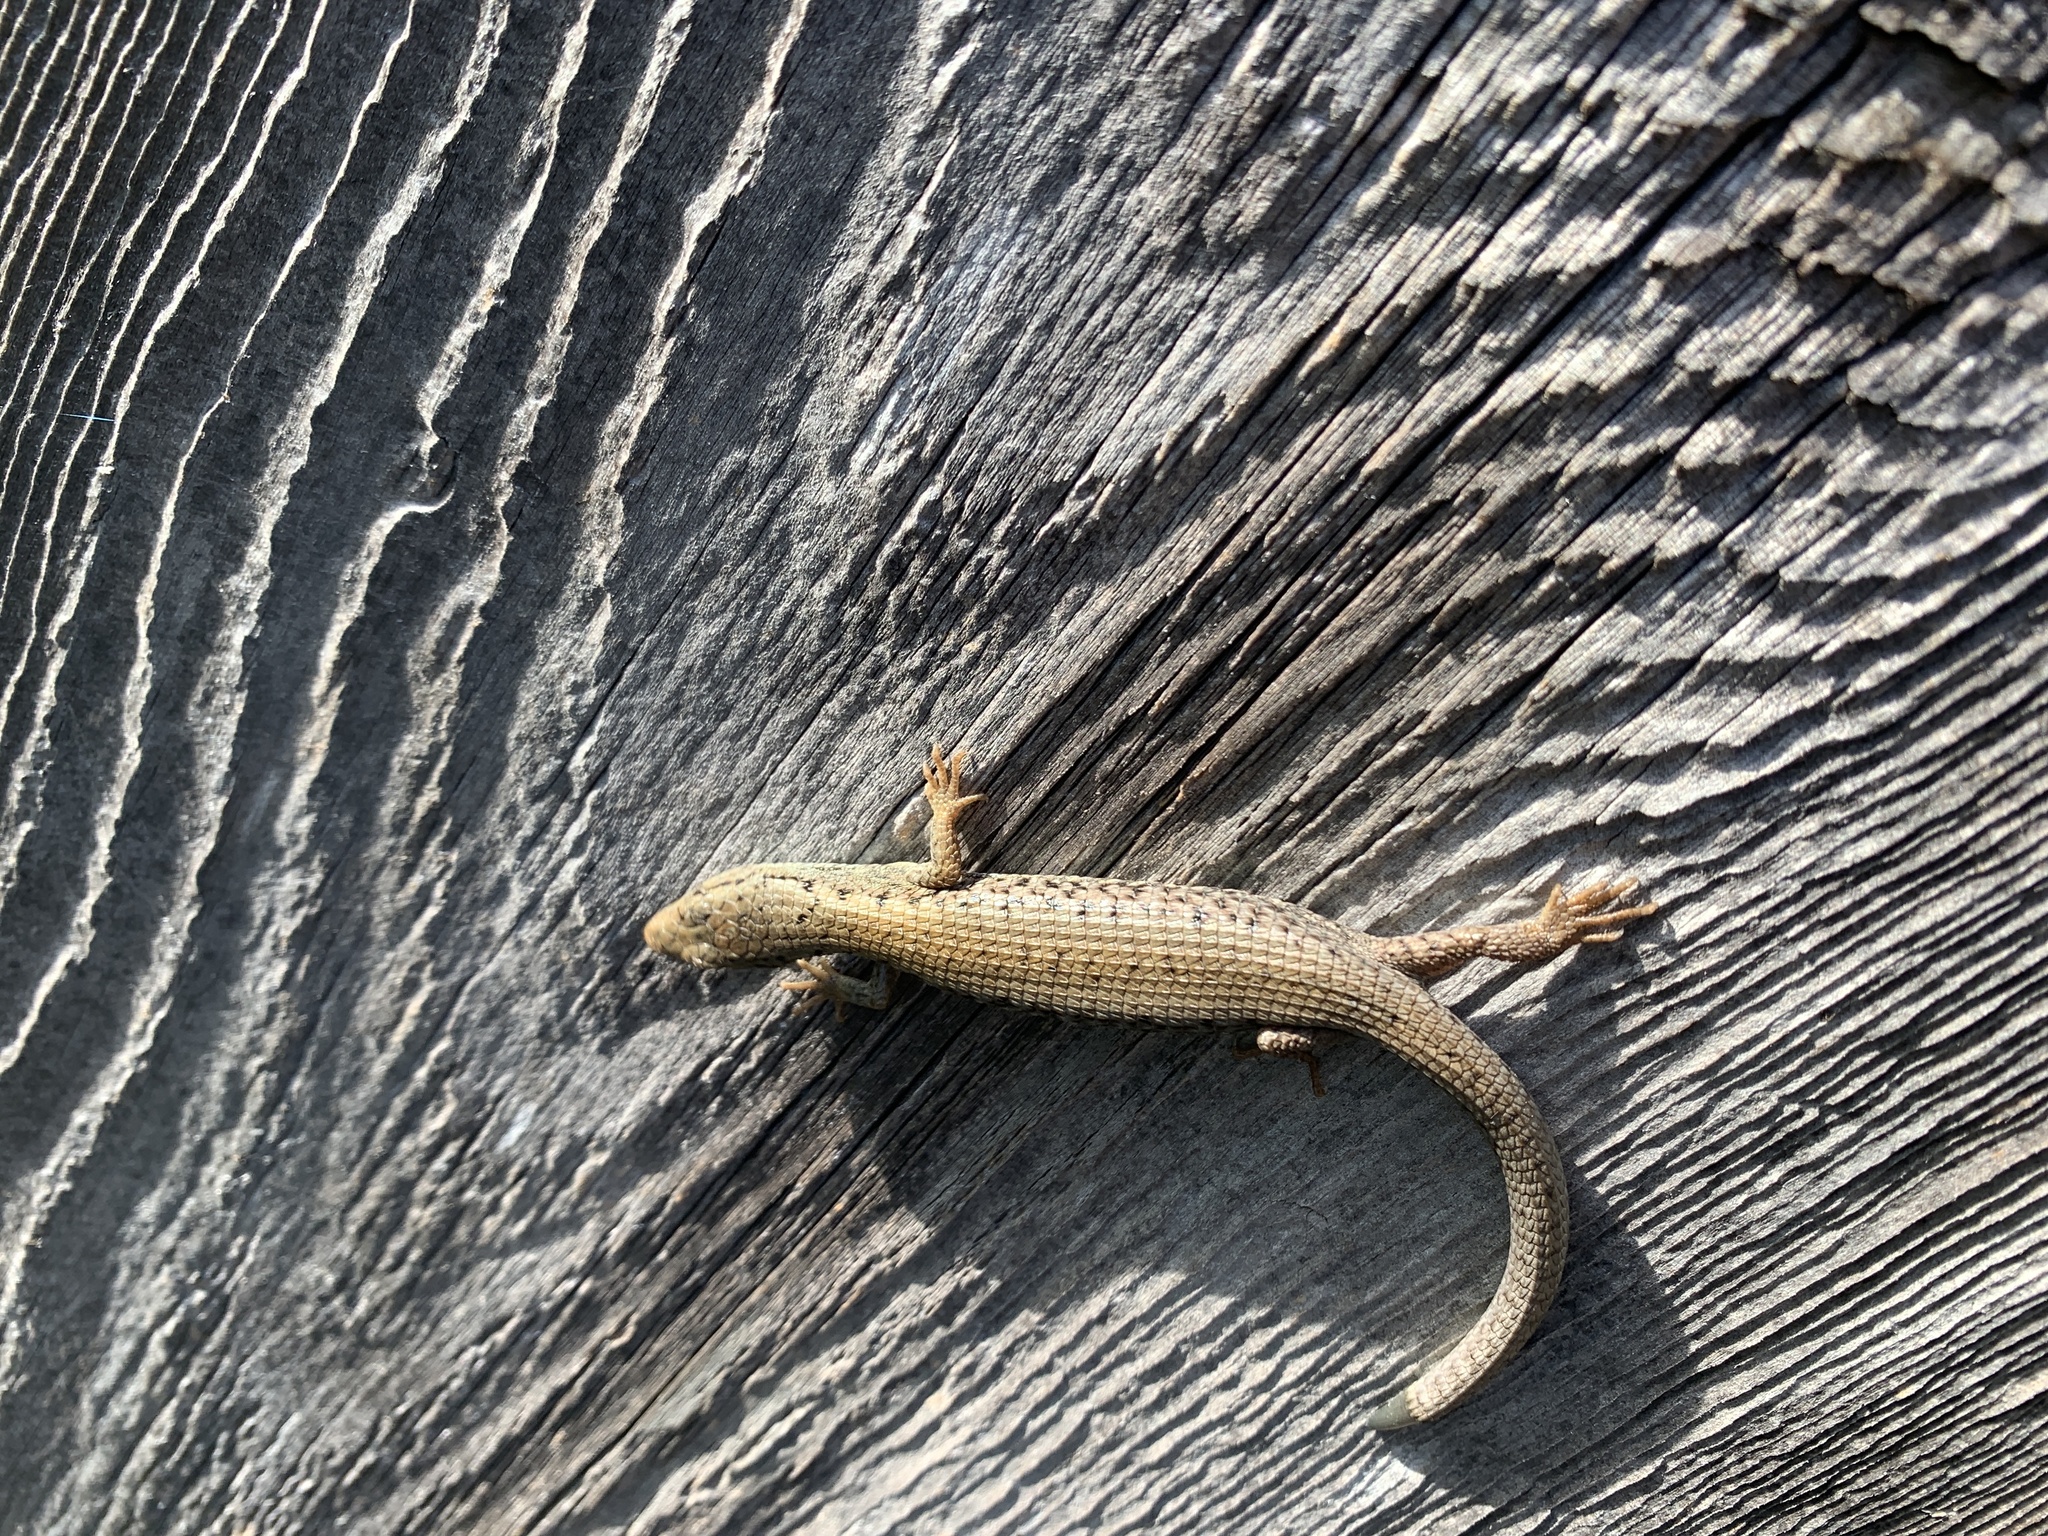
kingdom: Animalia
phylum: Chordata
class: Squamata
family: Anguidae
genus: Elgaria
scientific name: Elgaria coerulea
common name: Northern alligator lizard
